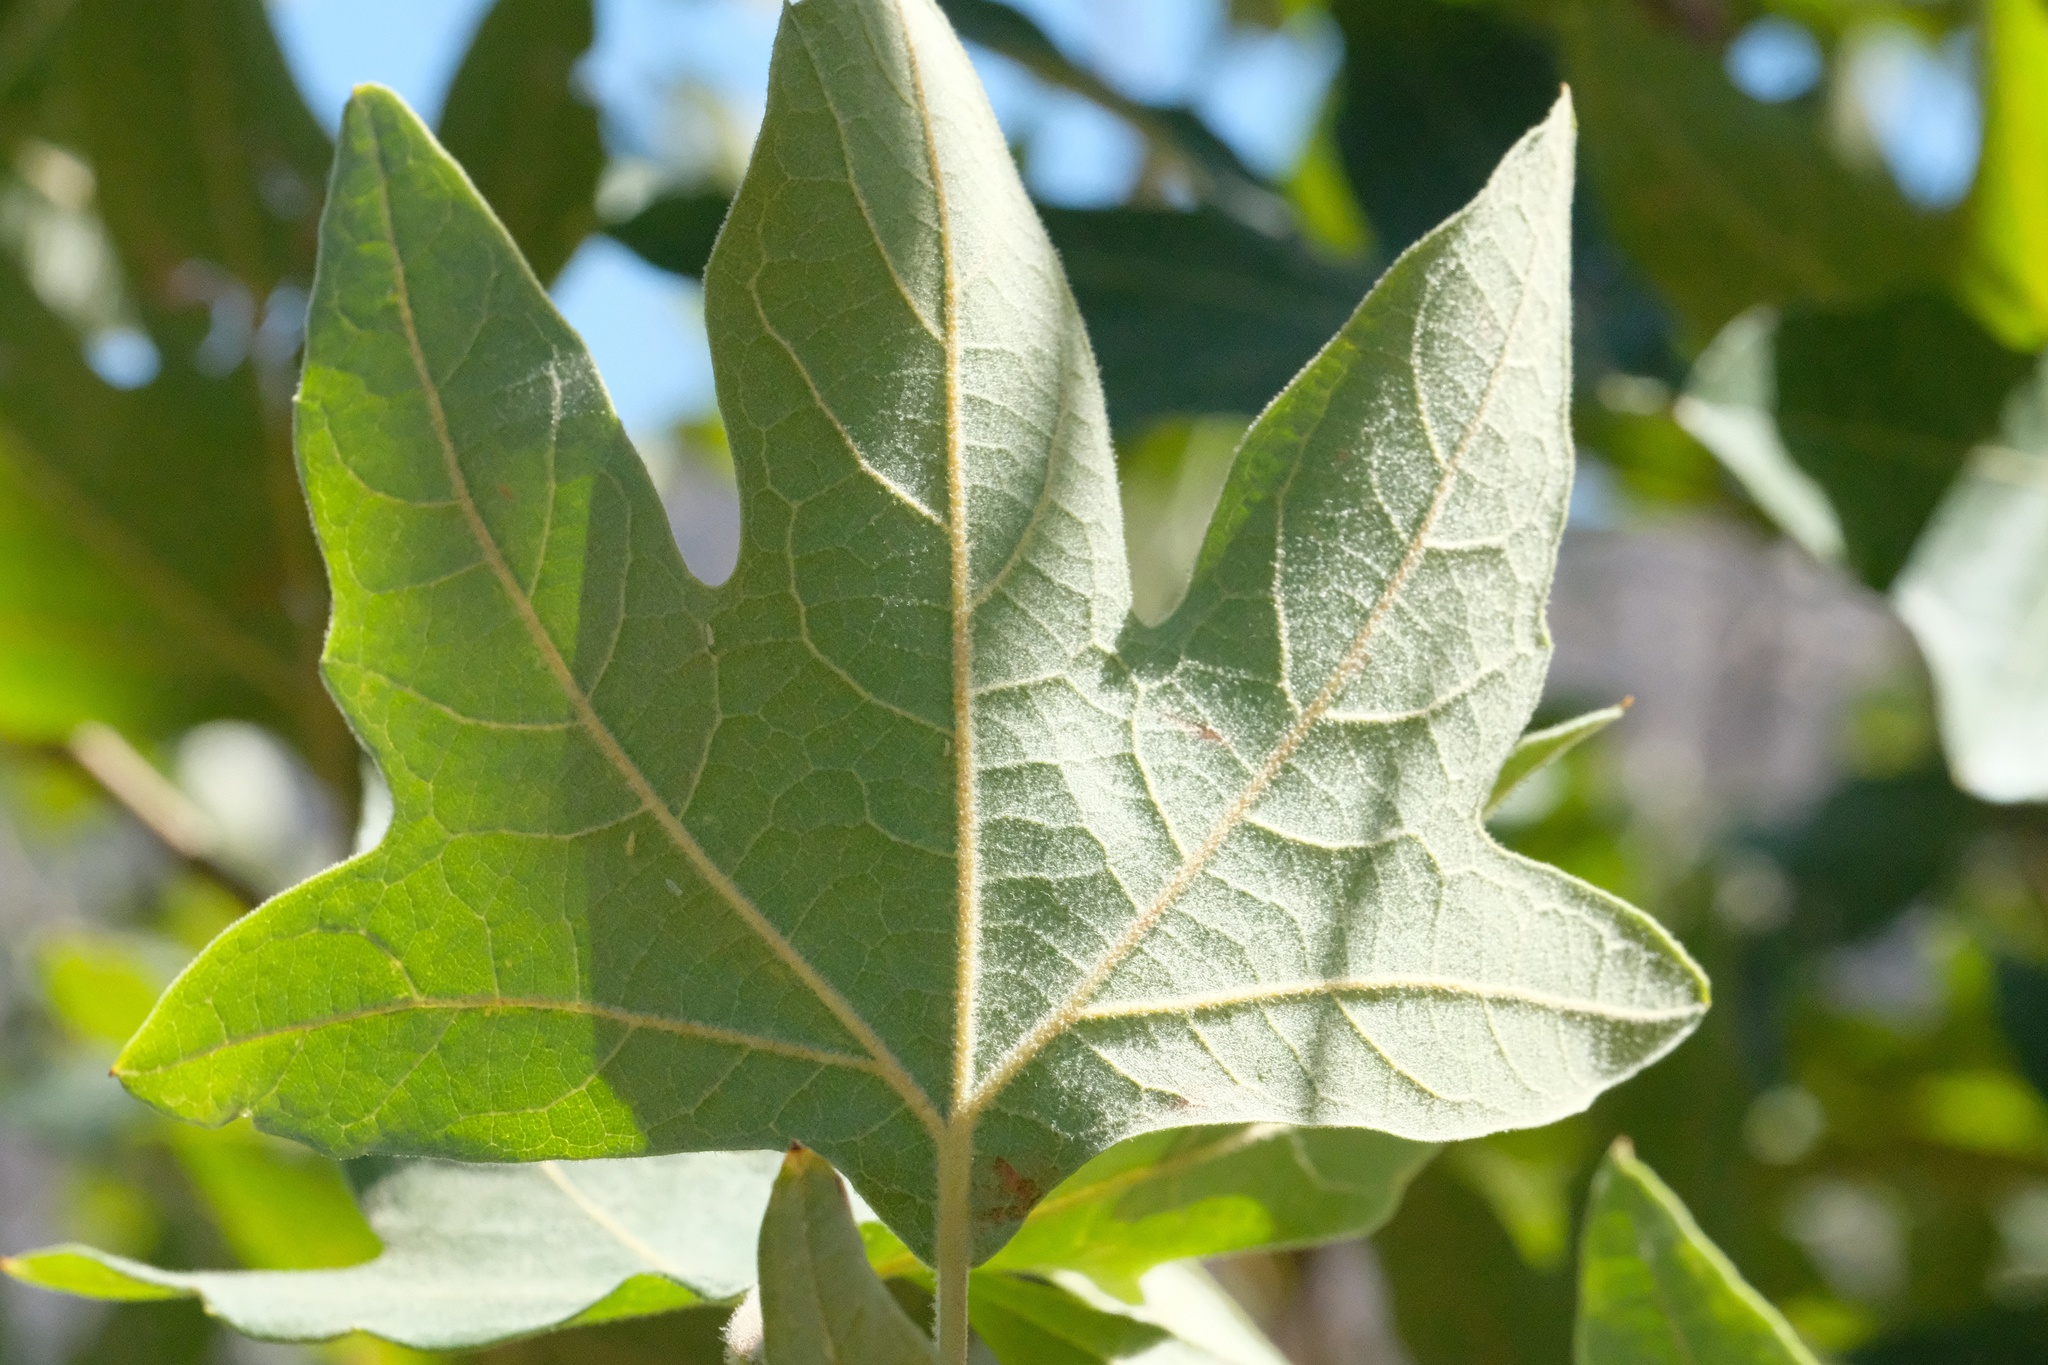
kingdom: Plantae
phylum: Tracheophyta
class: Magnoliopsida
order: Proteales
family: Platanaceae
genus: Platanus
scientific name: Platanus racemosa
